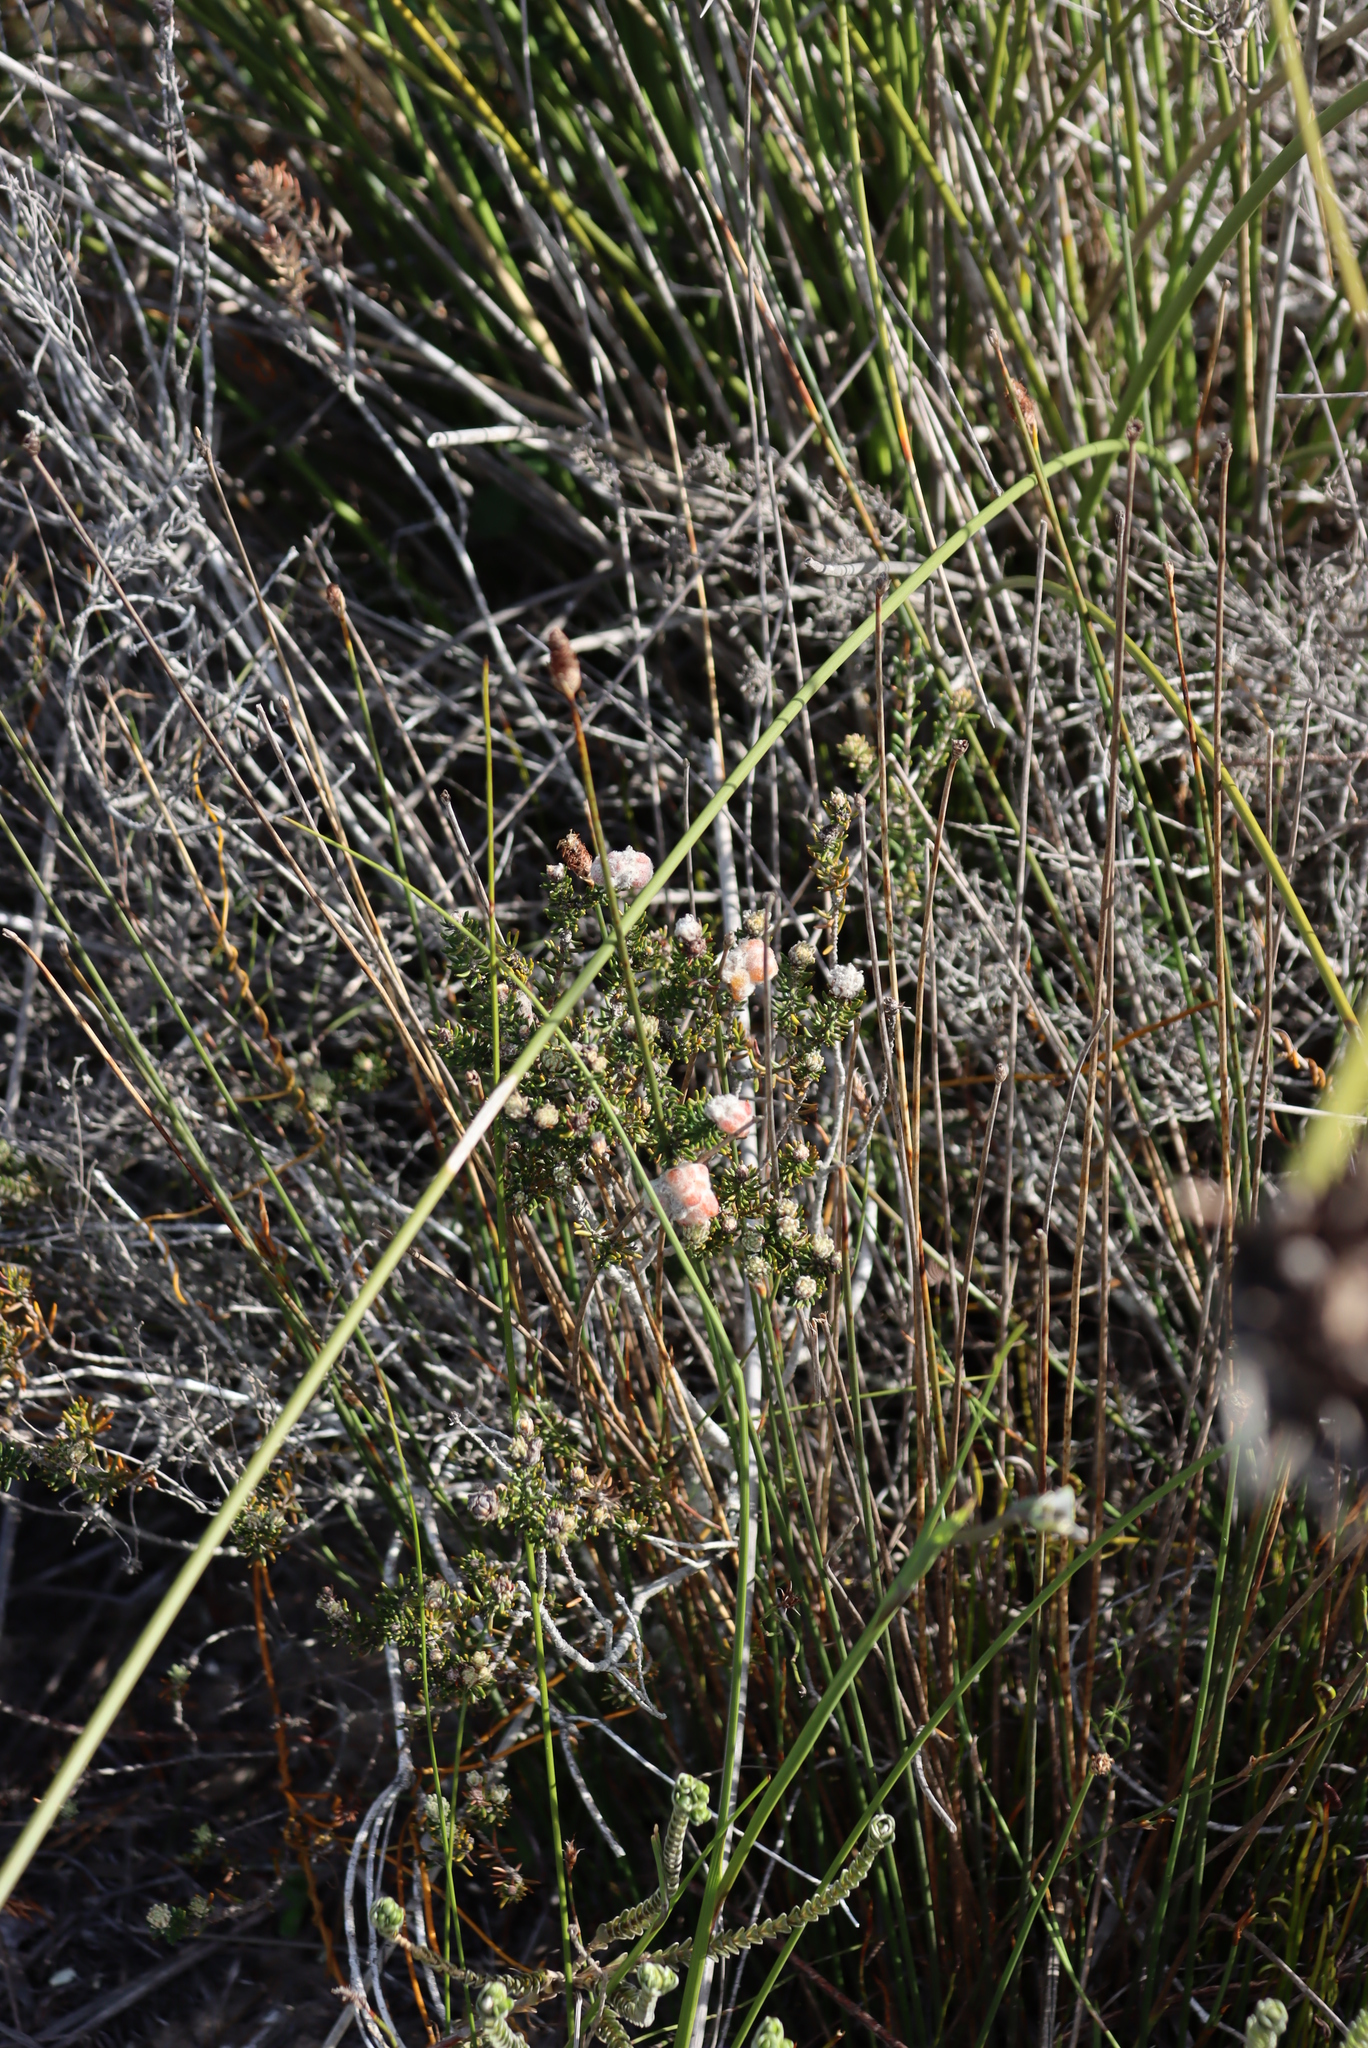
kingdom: Plantae
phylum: Tracheophyta
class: Magnoliopsida
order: Rosales
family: Rhamnaceae
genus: Trichocephalus
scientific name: Trichocephalus stipularis
